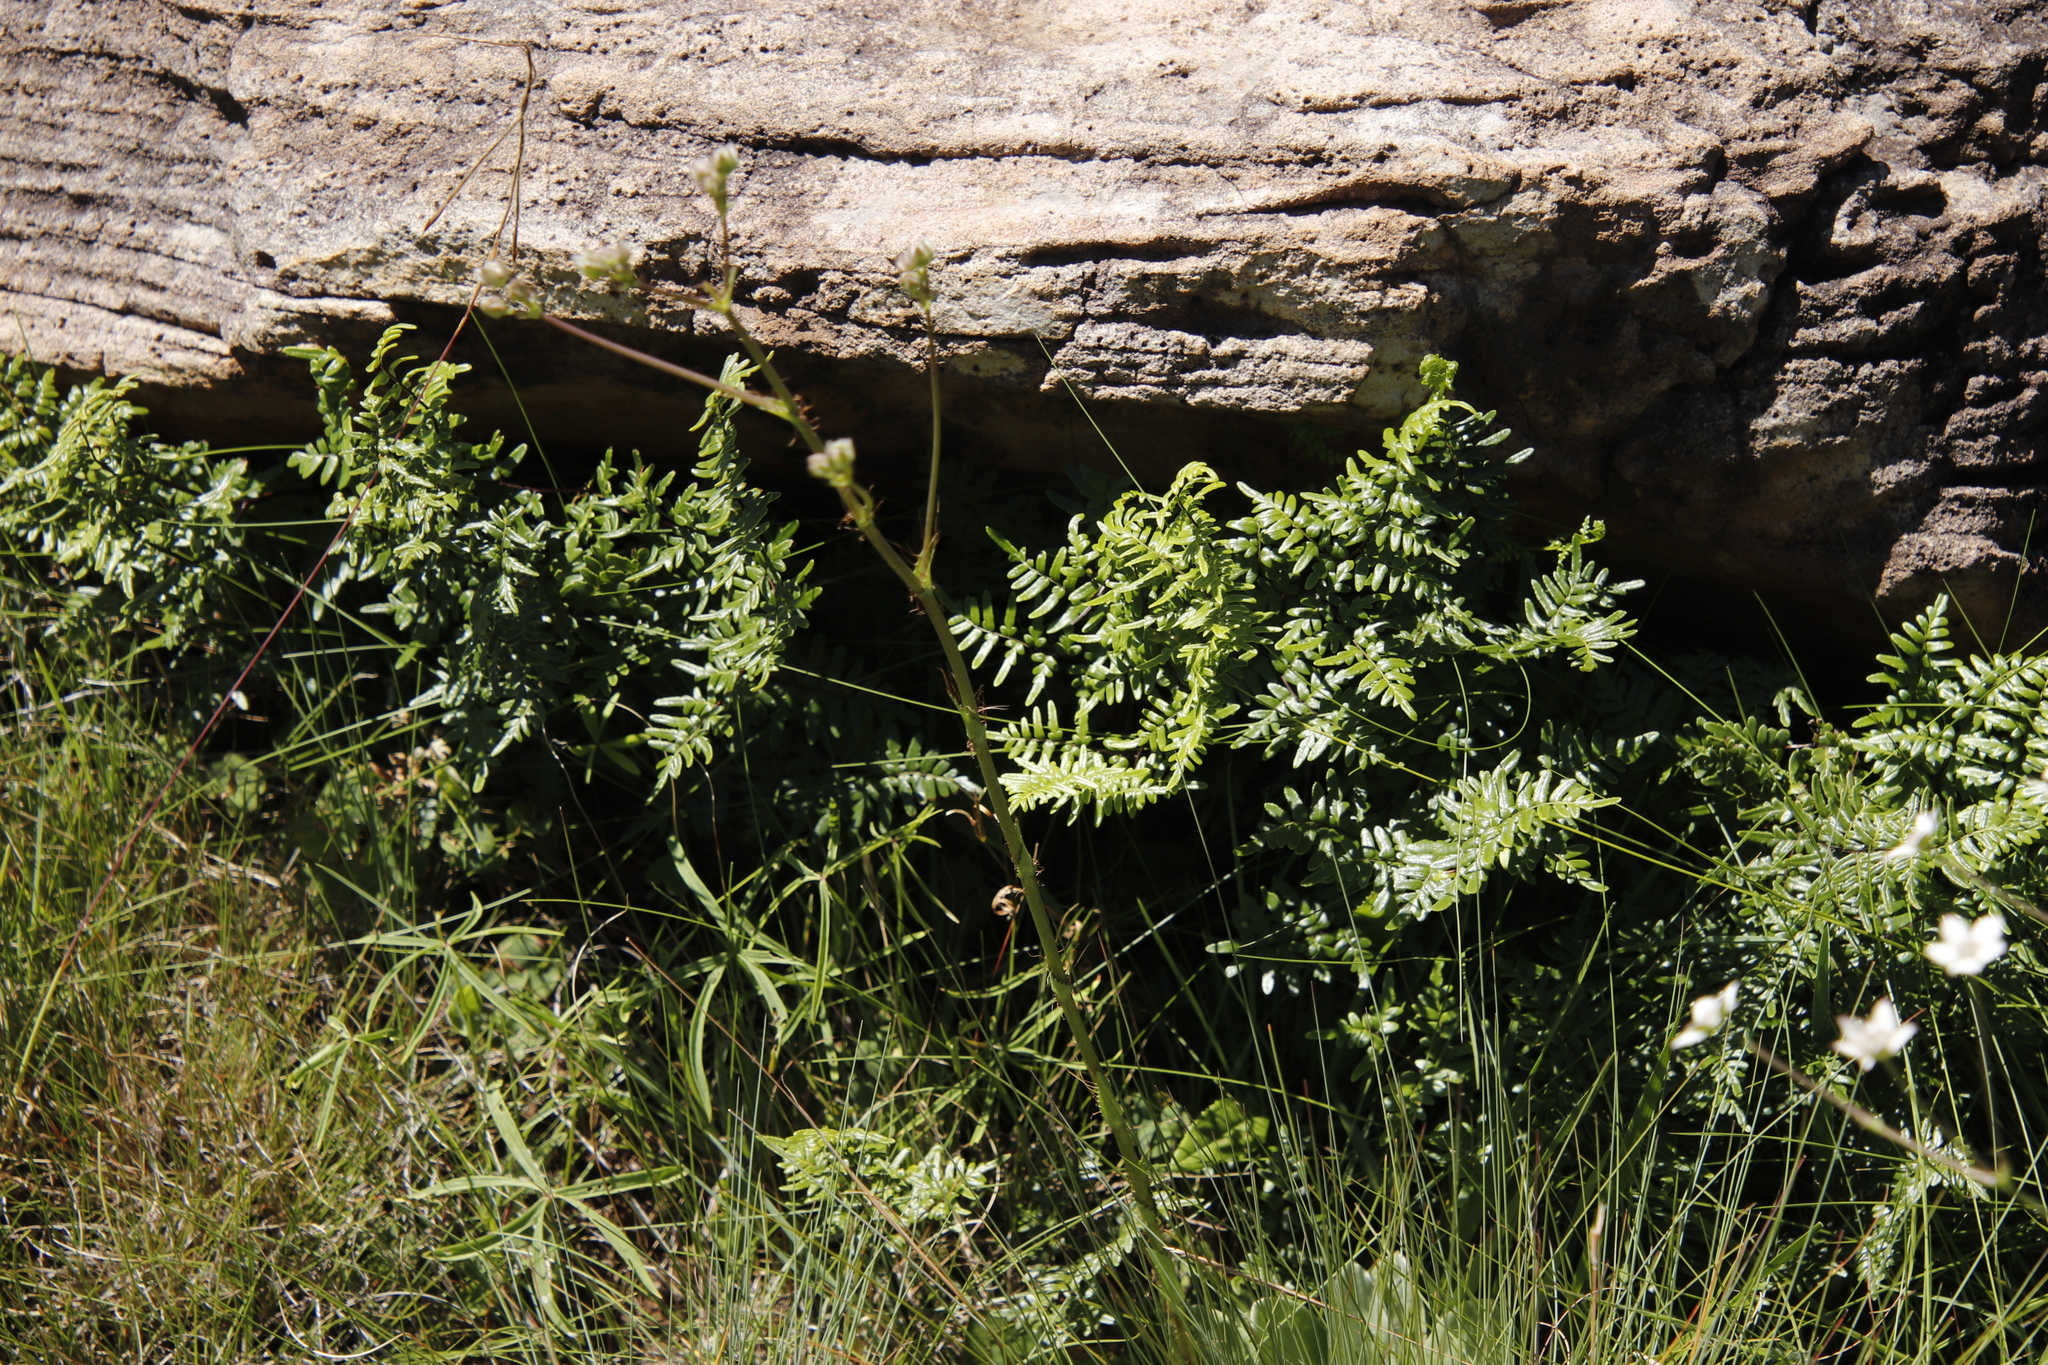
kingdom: Plantae
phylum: Tracheophyta
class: Polypodiopsida
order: Polypodiales
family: Pteridaceae
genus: Cheilanthes
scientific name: Cheilanthes quadripinnata
